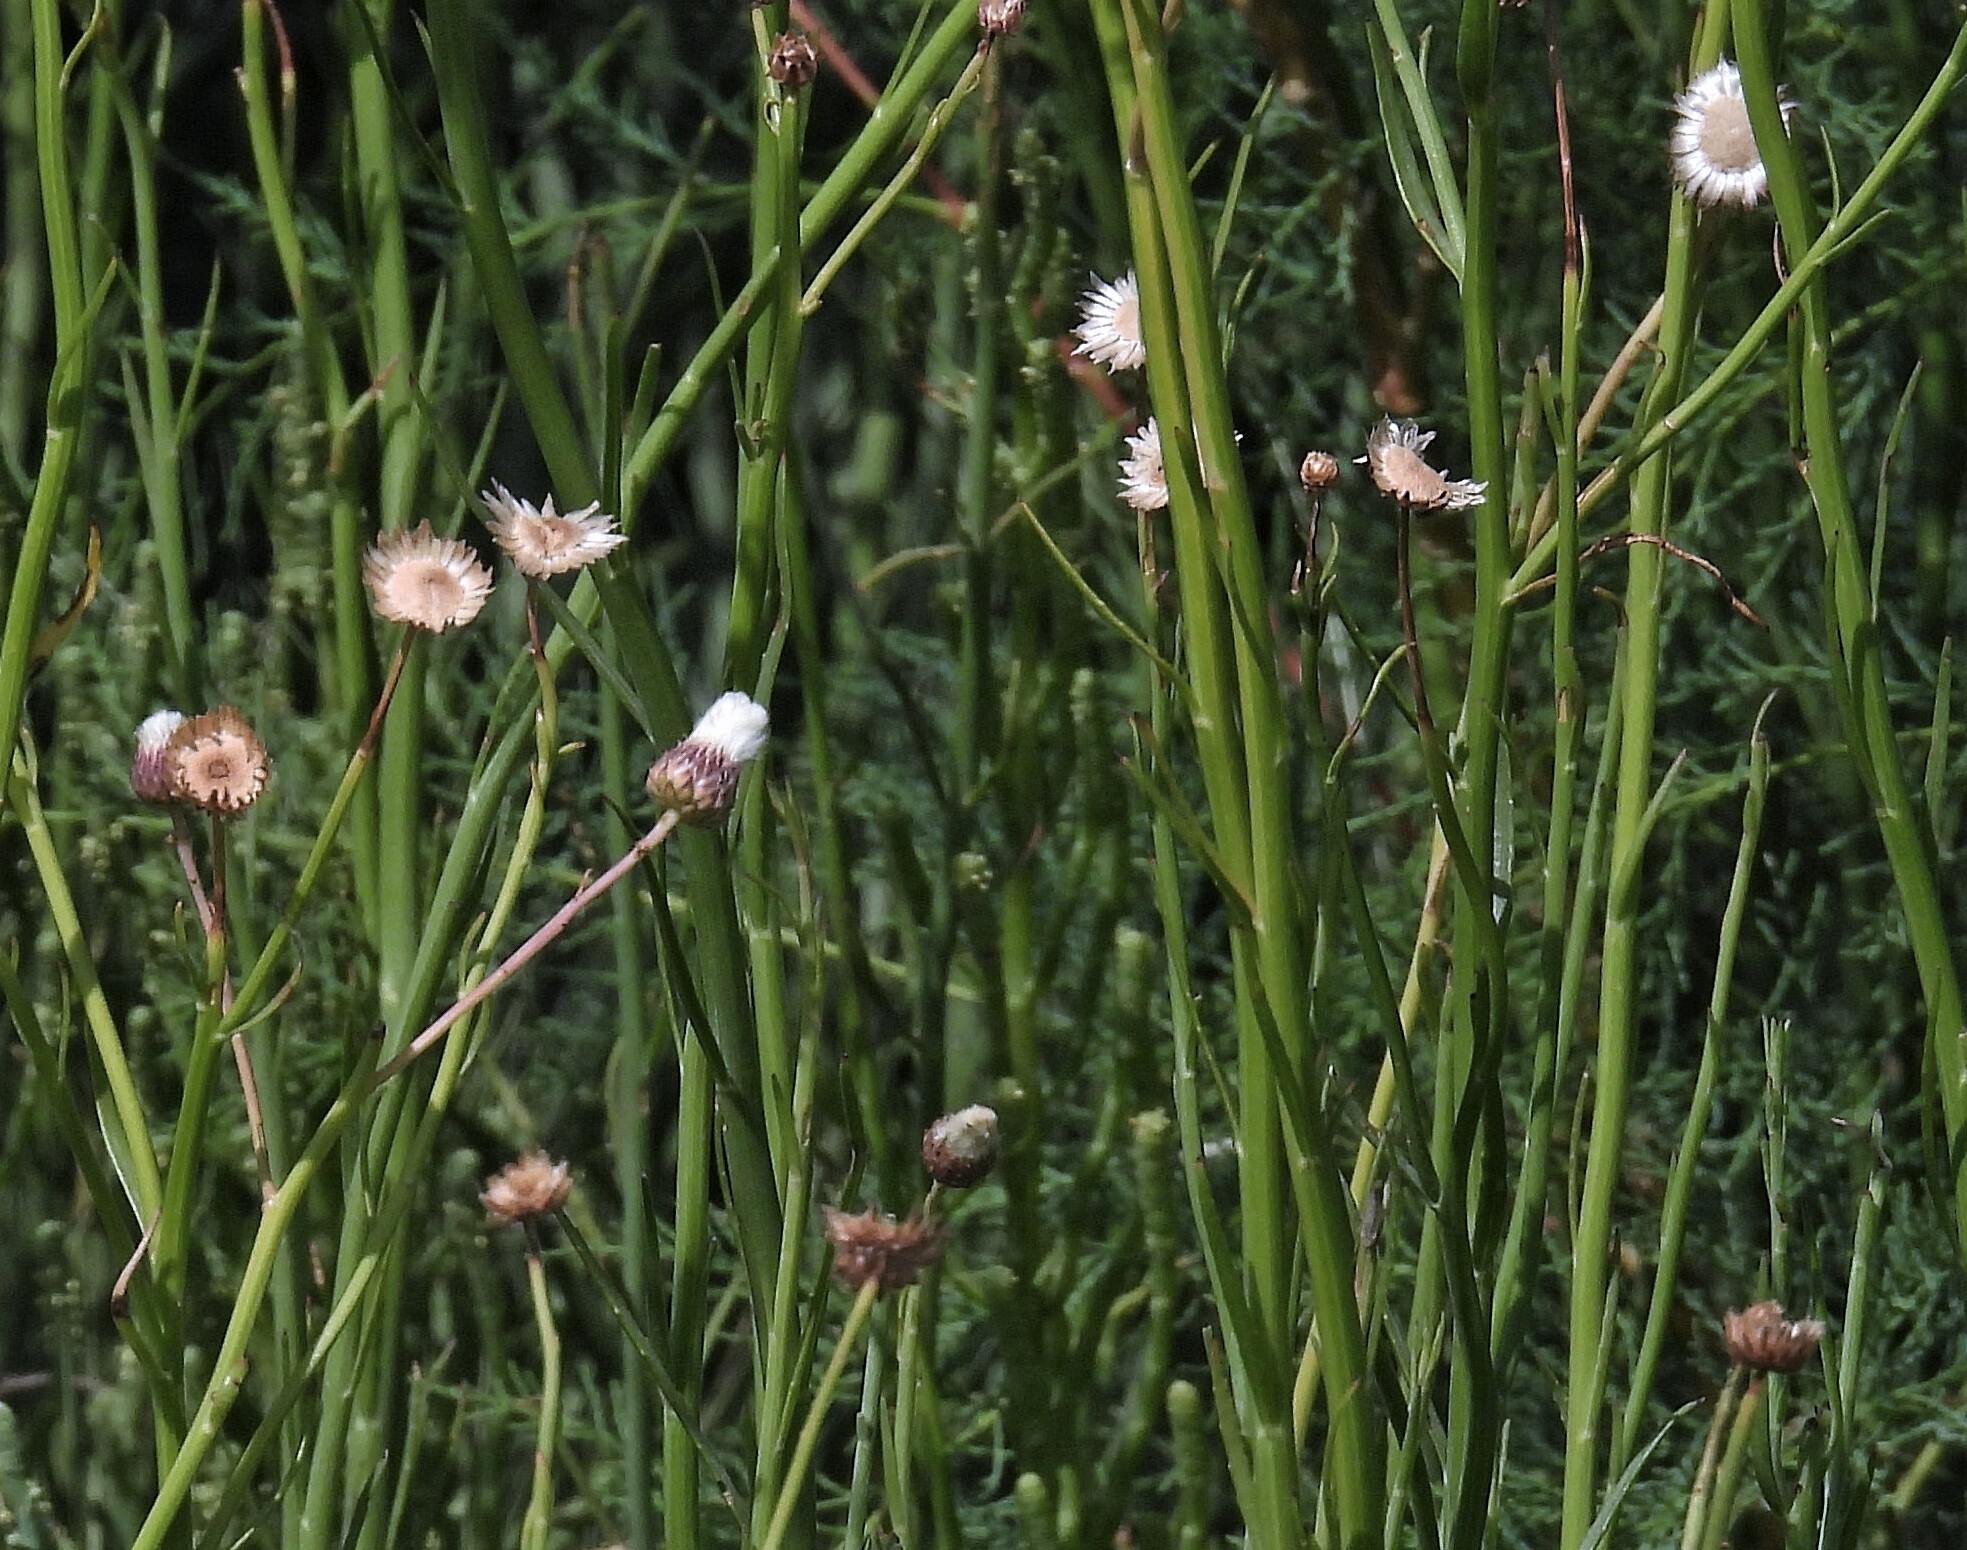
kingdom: Plantae
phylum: Tracheophyta
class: Magnoliopsida
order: Asterales
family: Asteraceae
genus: Baccharis
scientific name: Baccharis juncea
